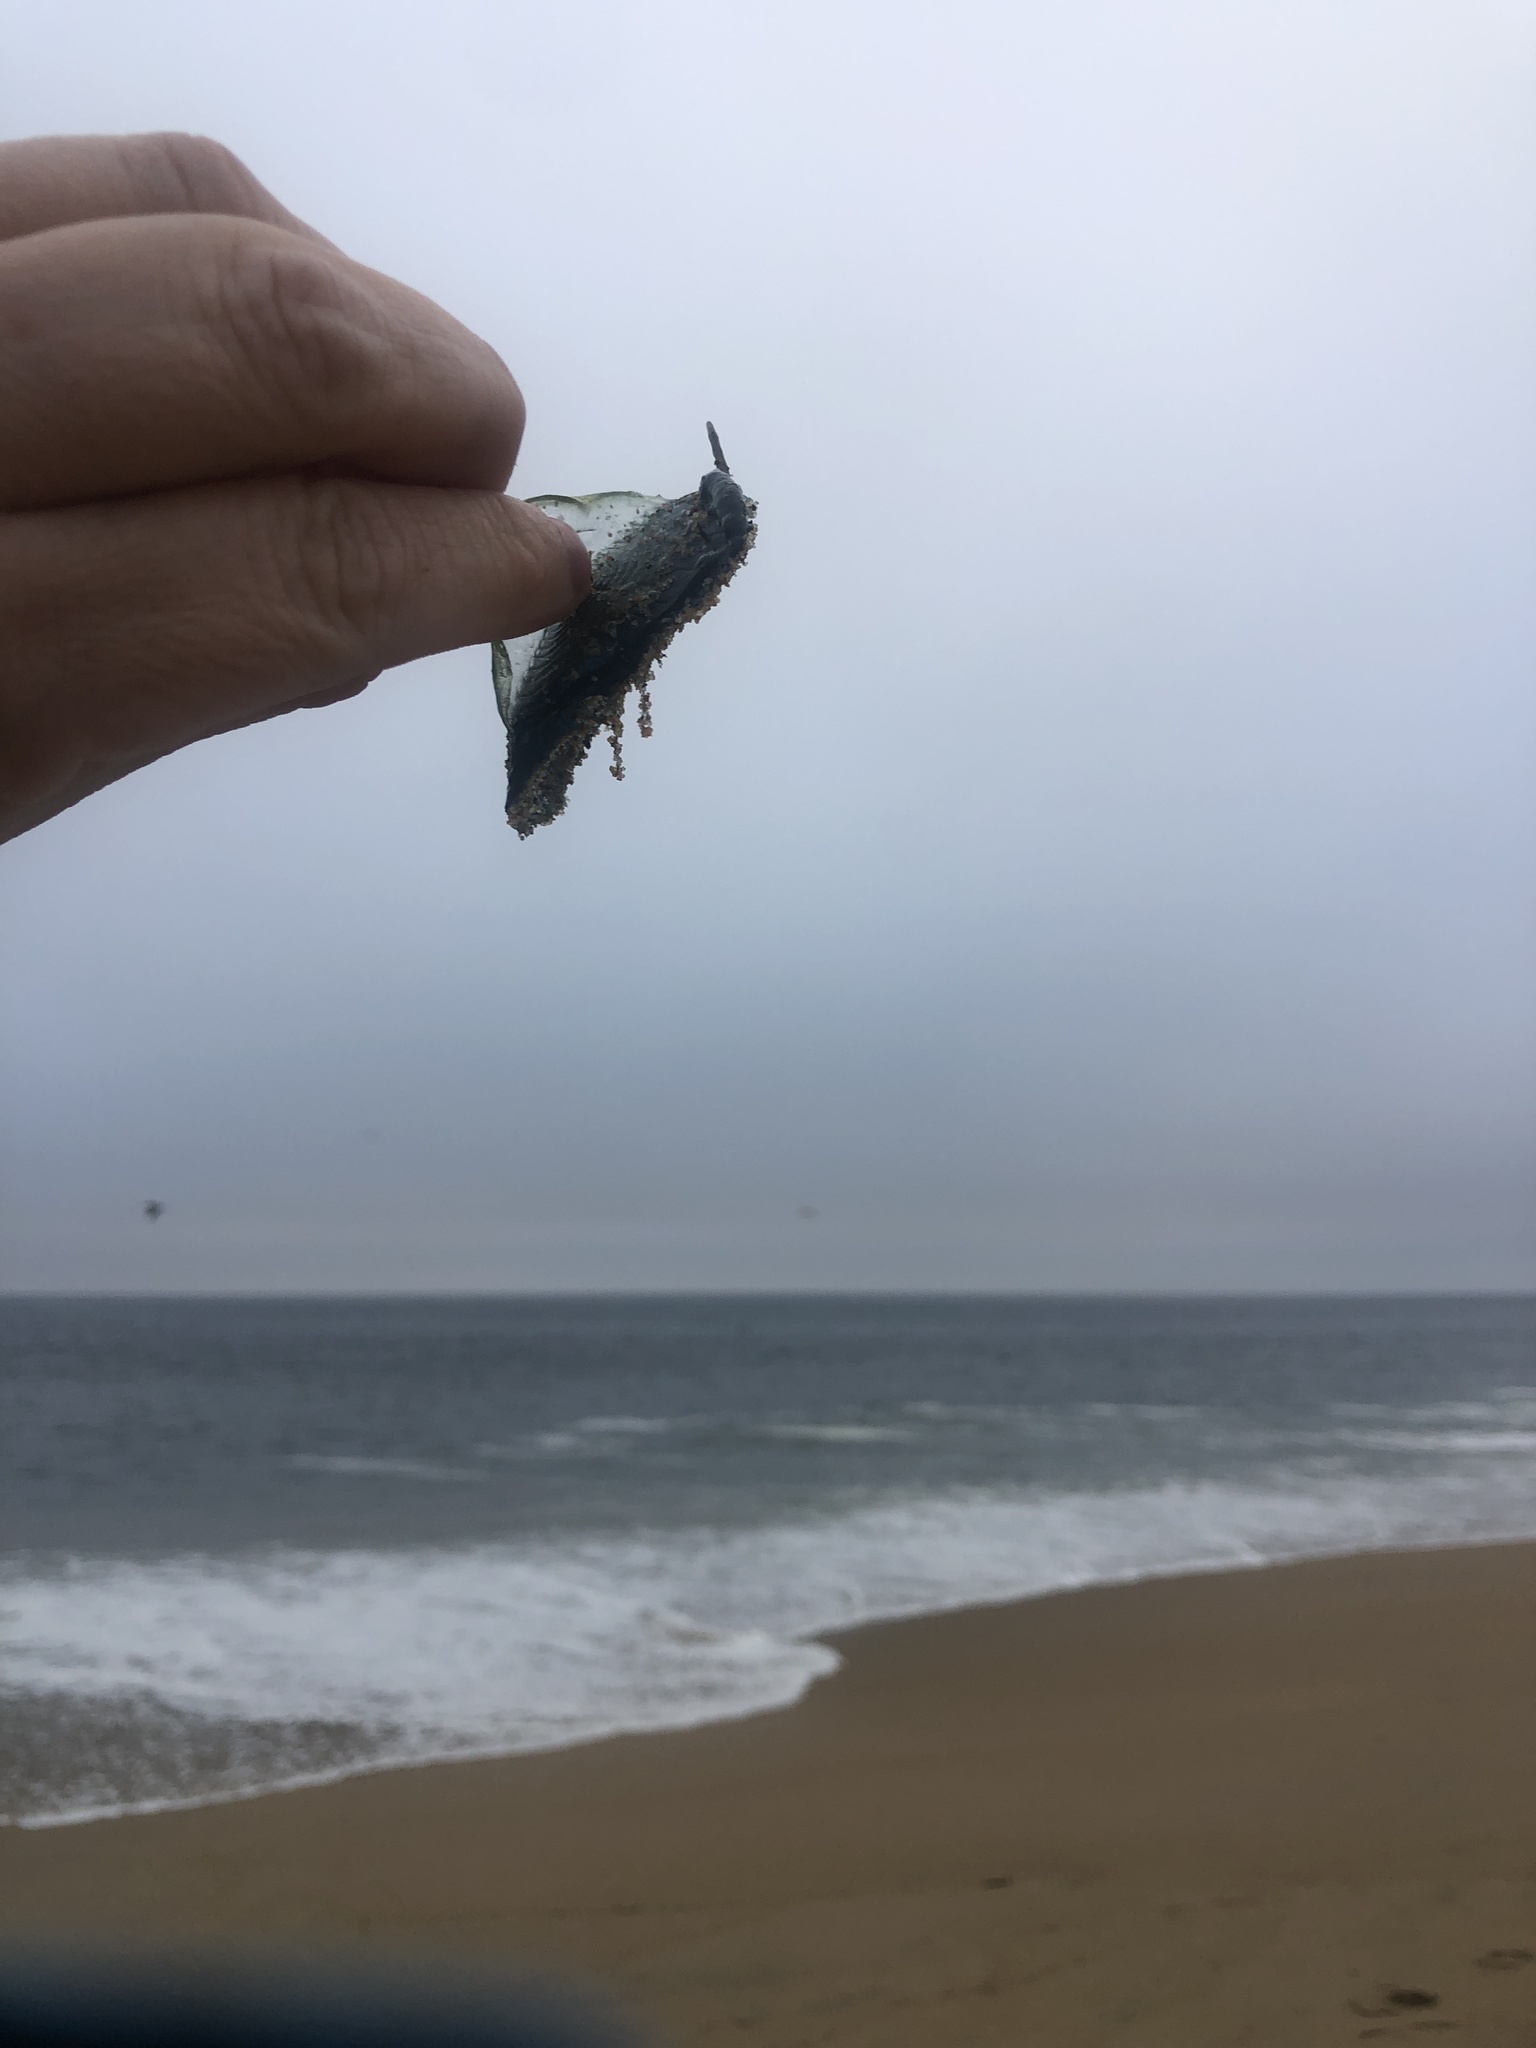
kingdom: Animalia
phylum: Cnidaria
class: Hydrozoa
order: Anthoathecata
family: Porpitidae
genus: Velella
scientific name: Velella velella
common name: By-the-wind-sailor
